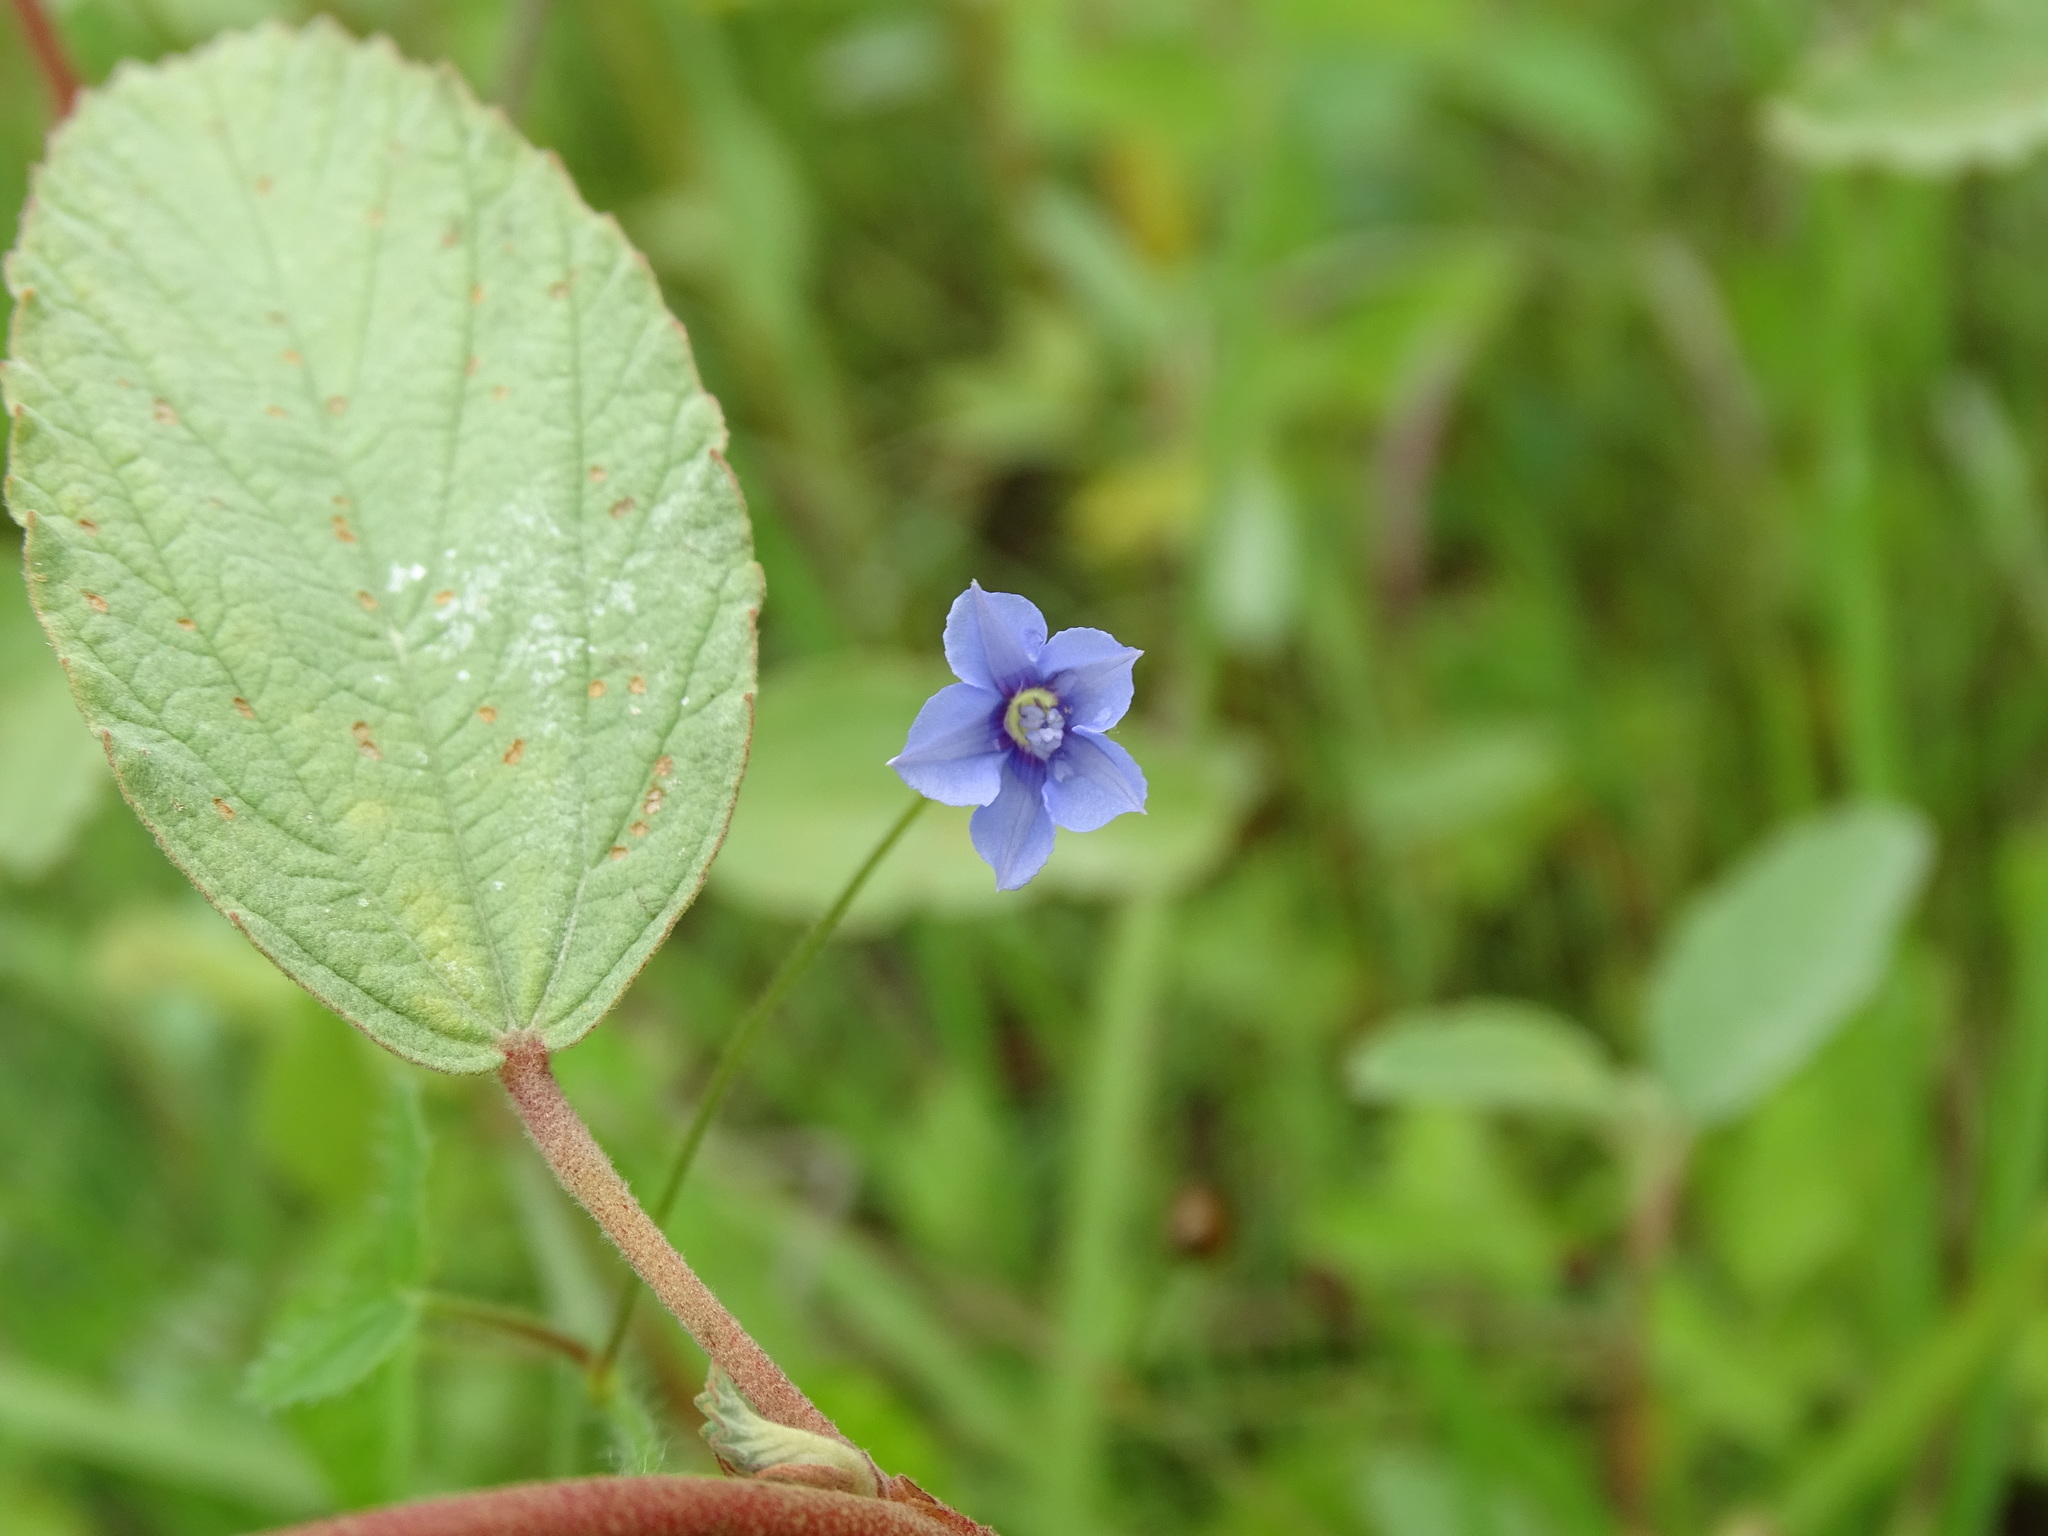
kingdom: Plantae
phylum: Tracheophyta
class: Magnoliopsida
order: Solanales
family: Convolvulaceae
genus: Jacquemontia
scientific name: Jacquemontia evolvuloides
